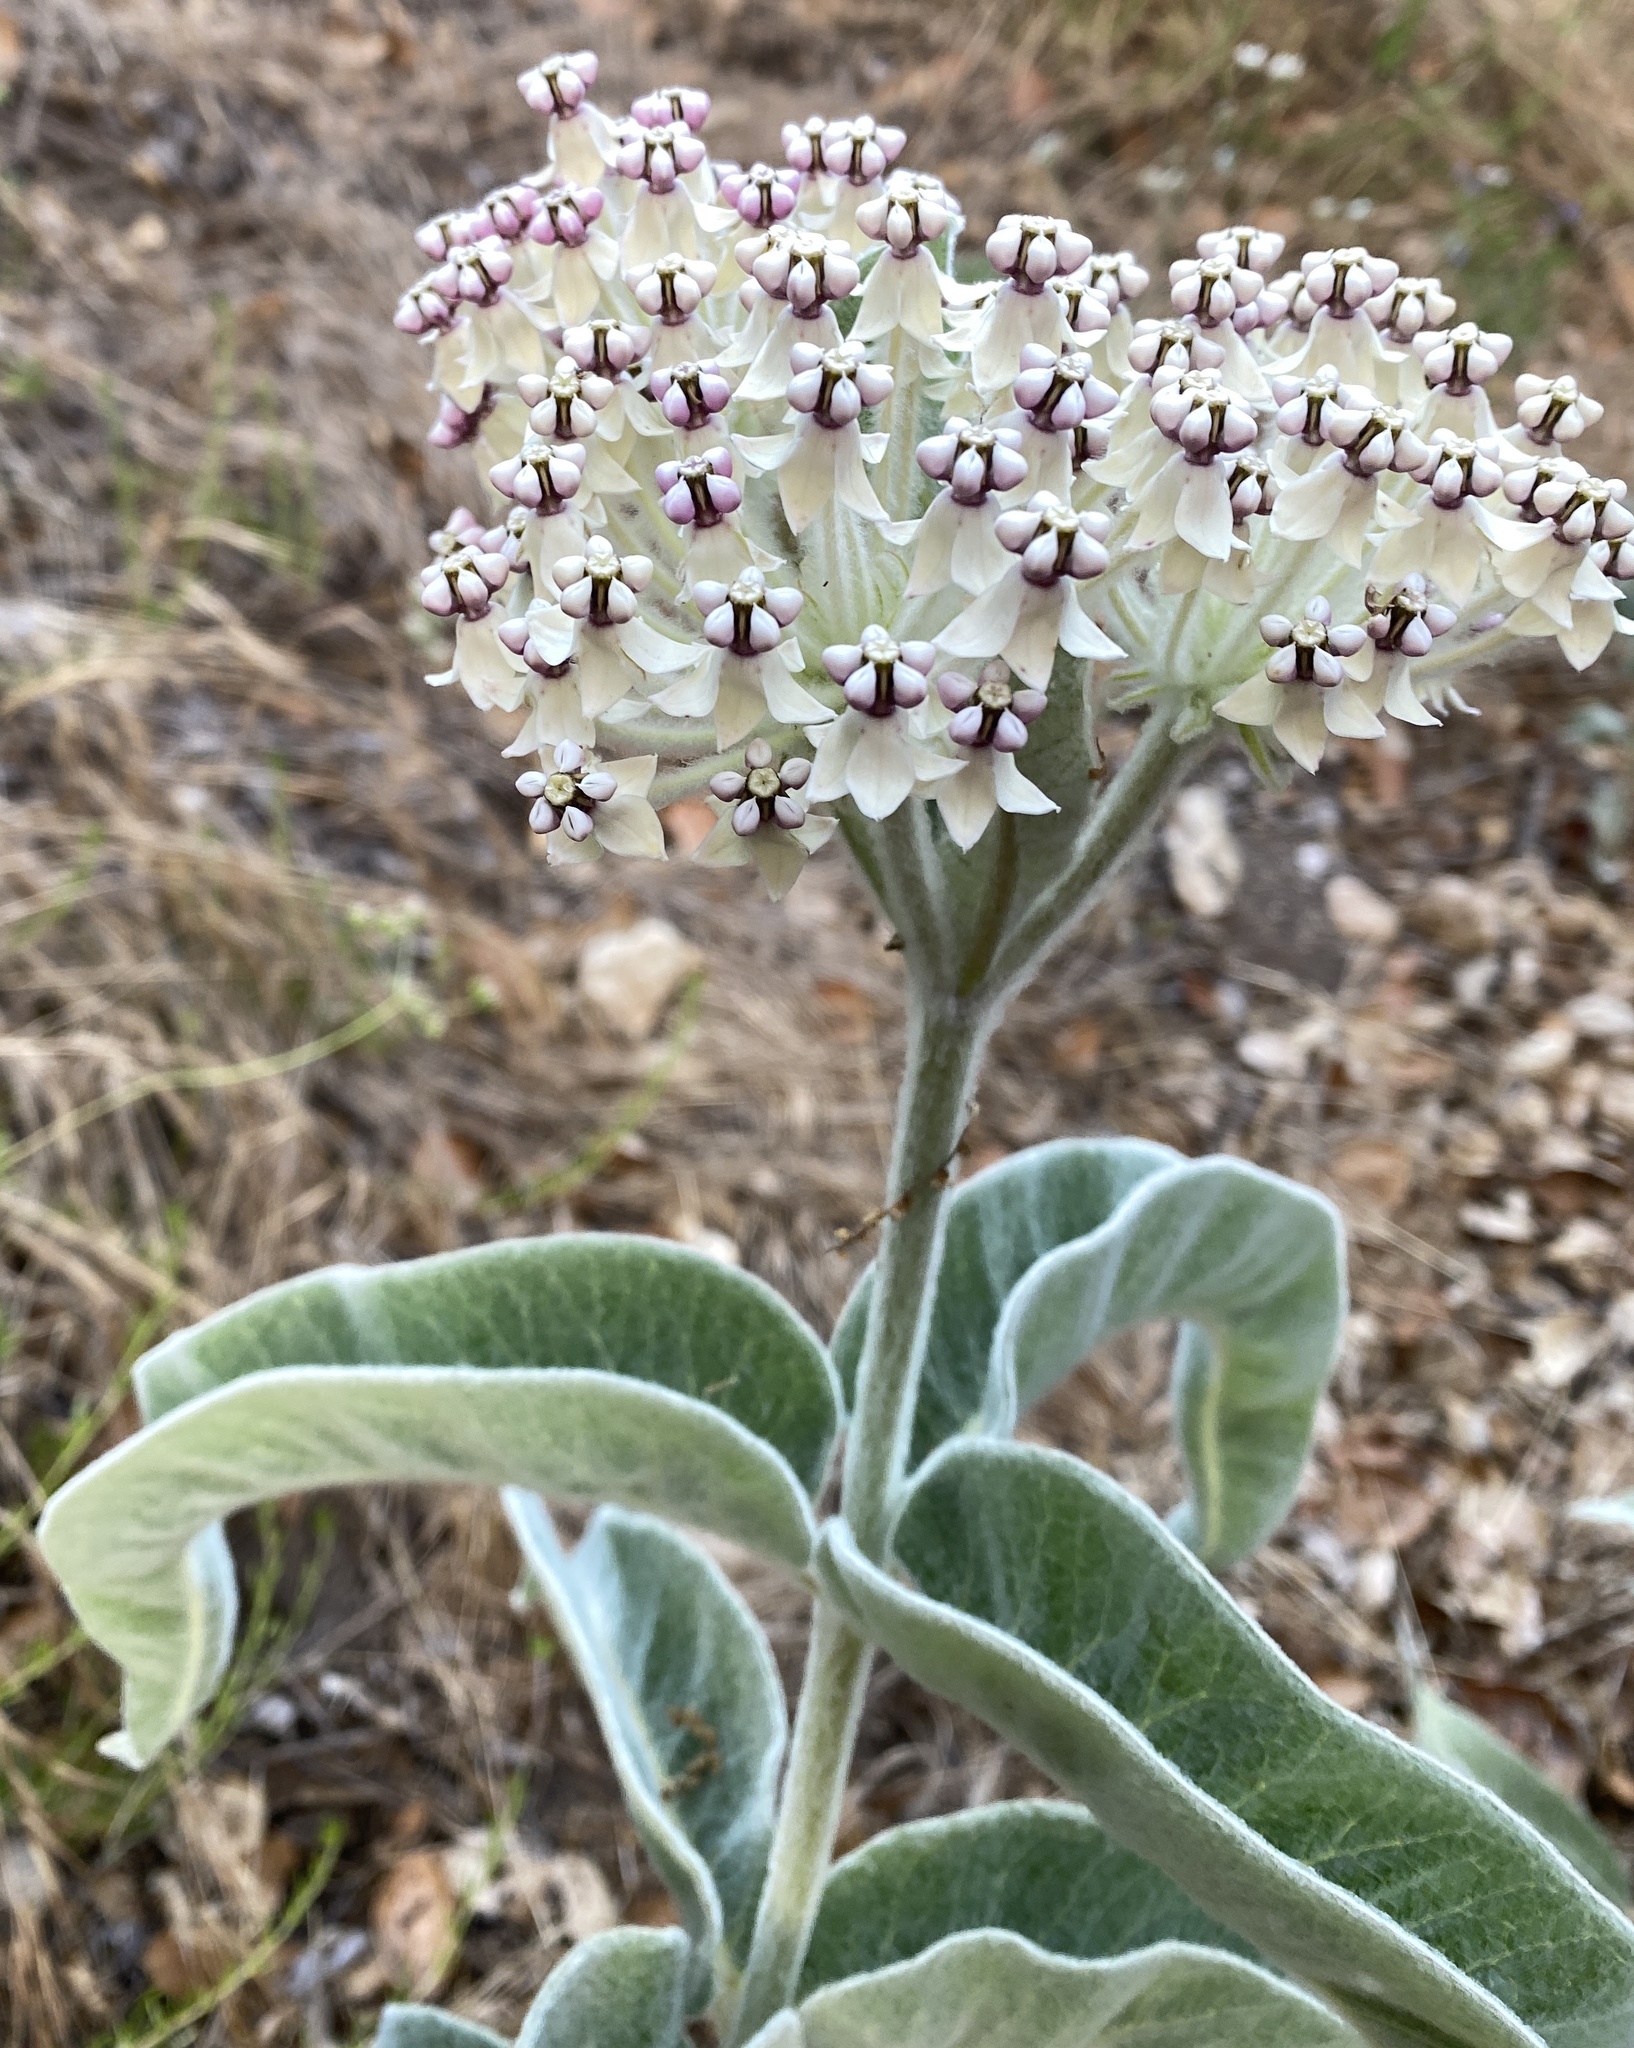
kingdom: Plantae
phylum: Tracheophyta
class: Magnoliopsida
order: Gentianales
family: Apocynaceae
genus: Asclepias
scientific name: Asclepias eriocarpa
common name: Indian milkweed
